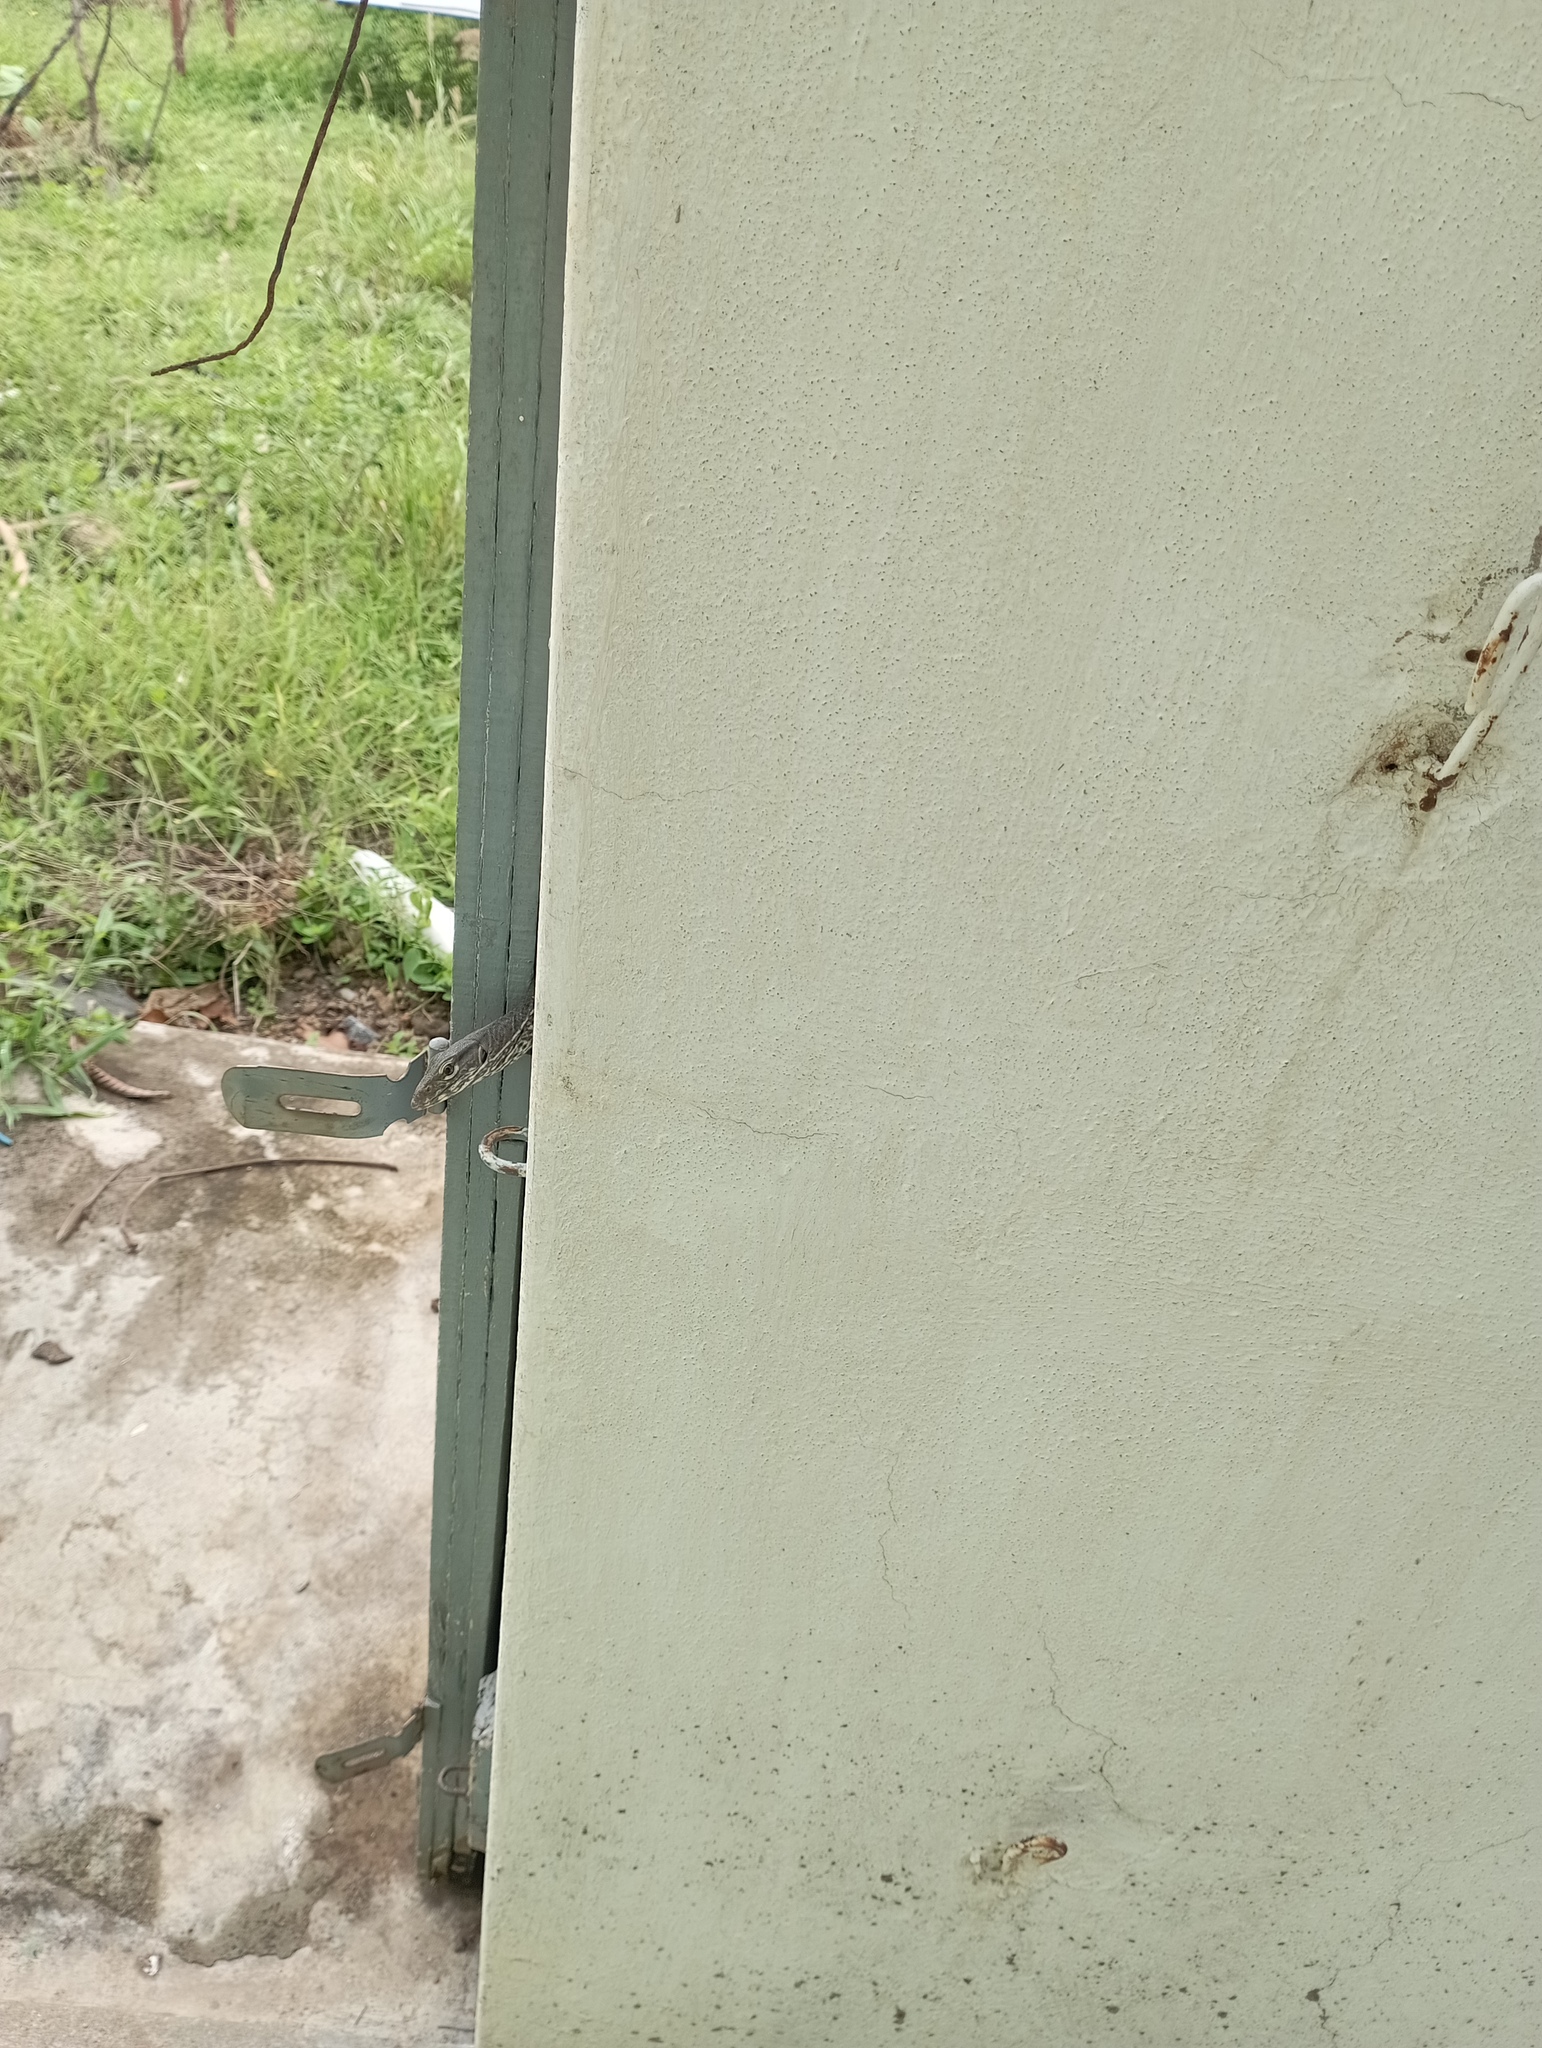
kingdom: Animalia
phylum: Chordata
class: Squamata
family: Varanidae
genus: Varanus
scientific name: Varanus bengalensis
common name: Bengal monitor
